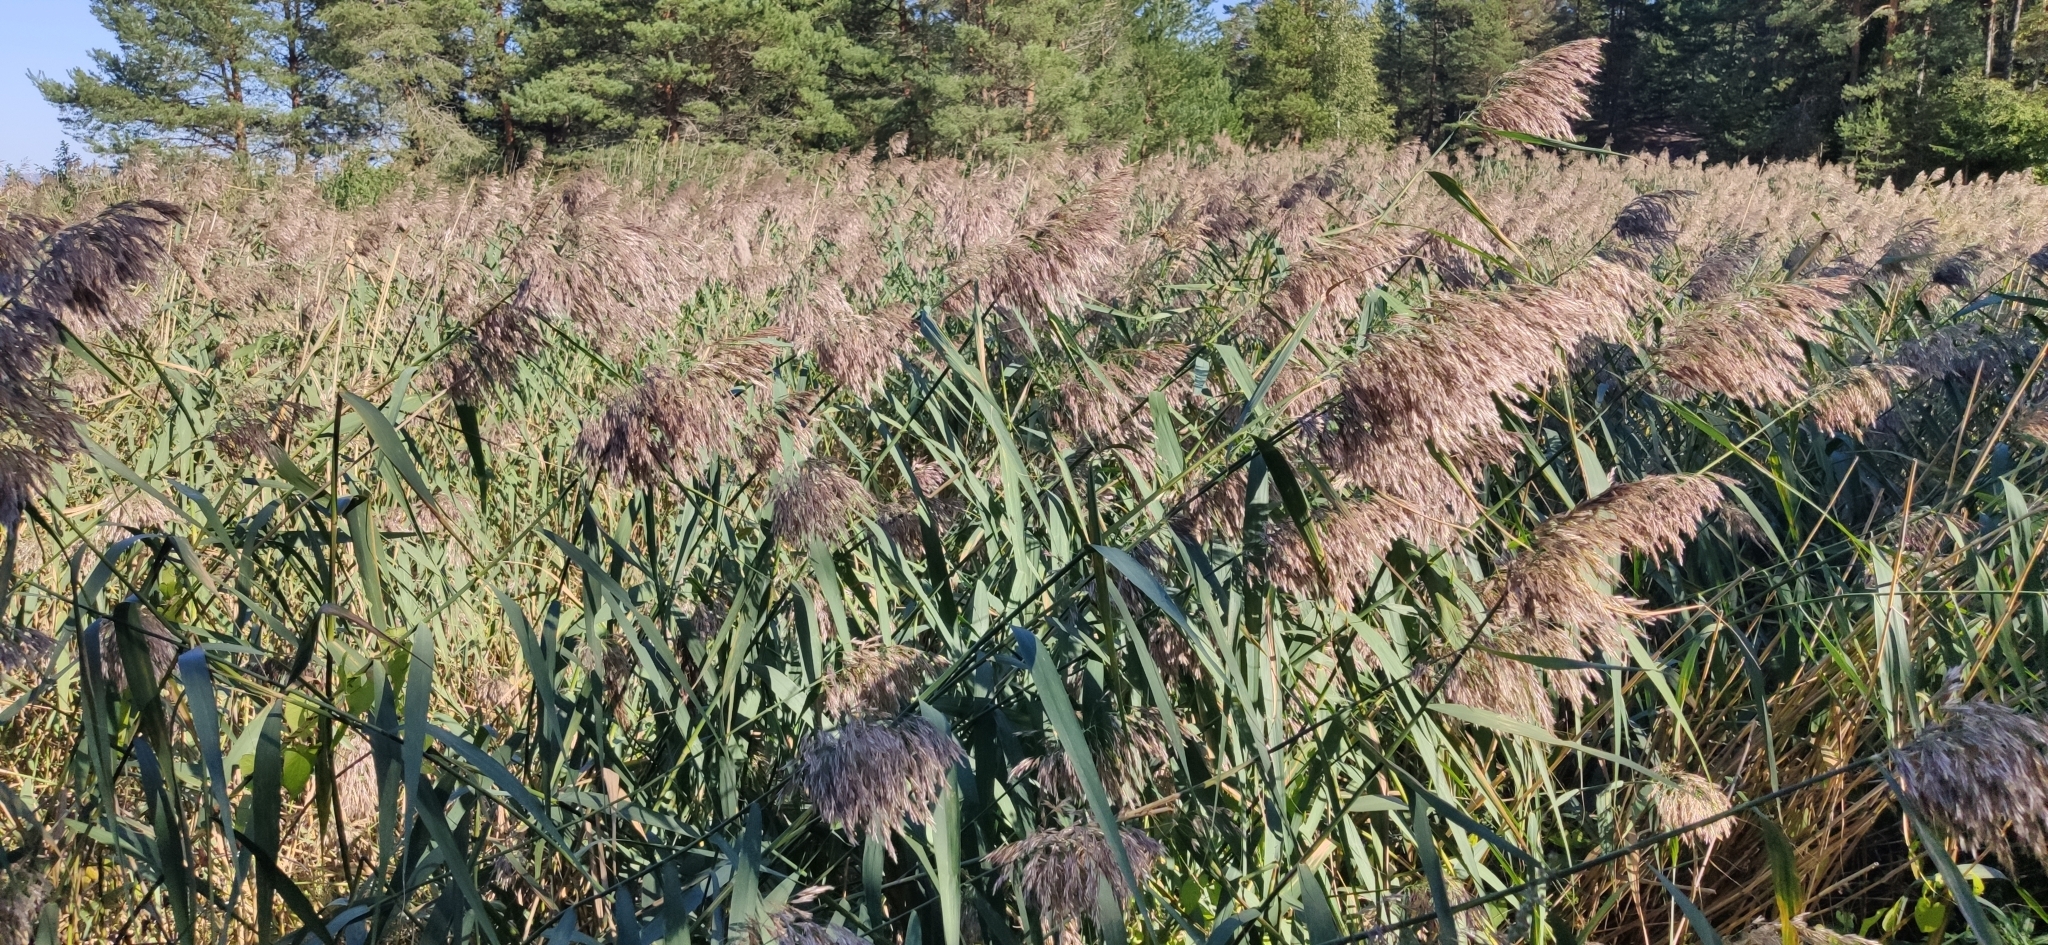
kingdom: Plantae
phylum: Tracheophyta
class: Liliopsida
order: Poales
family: Poaceae
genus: Phragmites
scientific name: Phragmites australis
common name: Common reed
